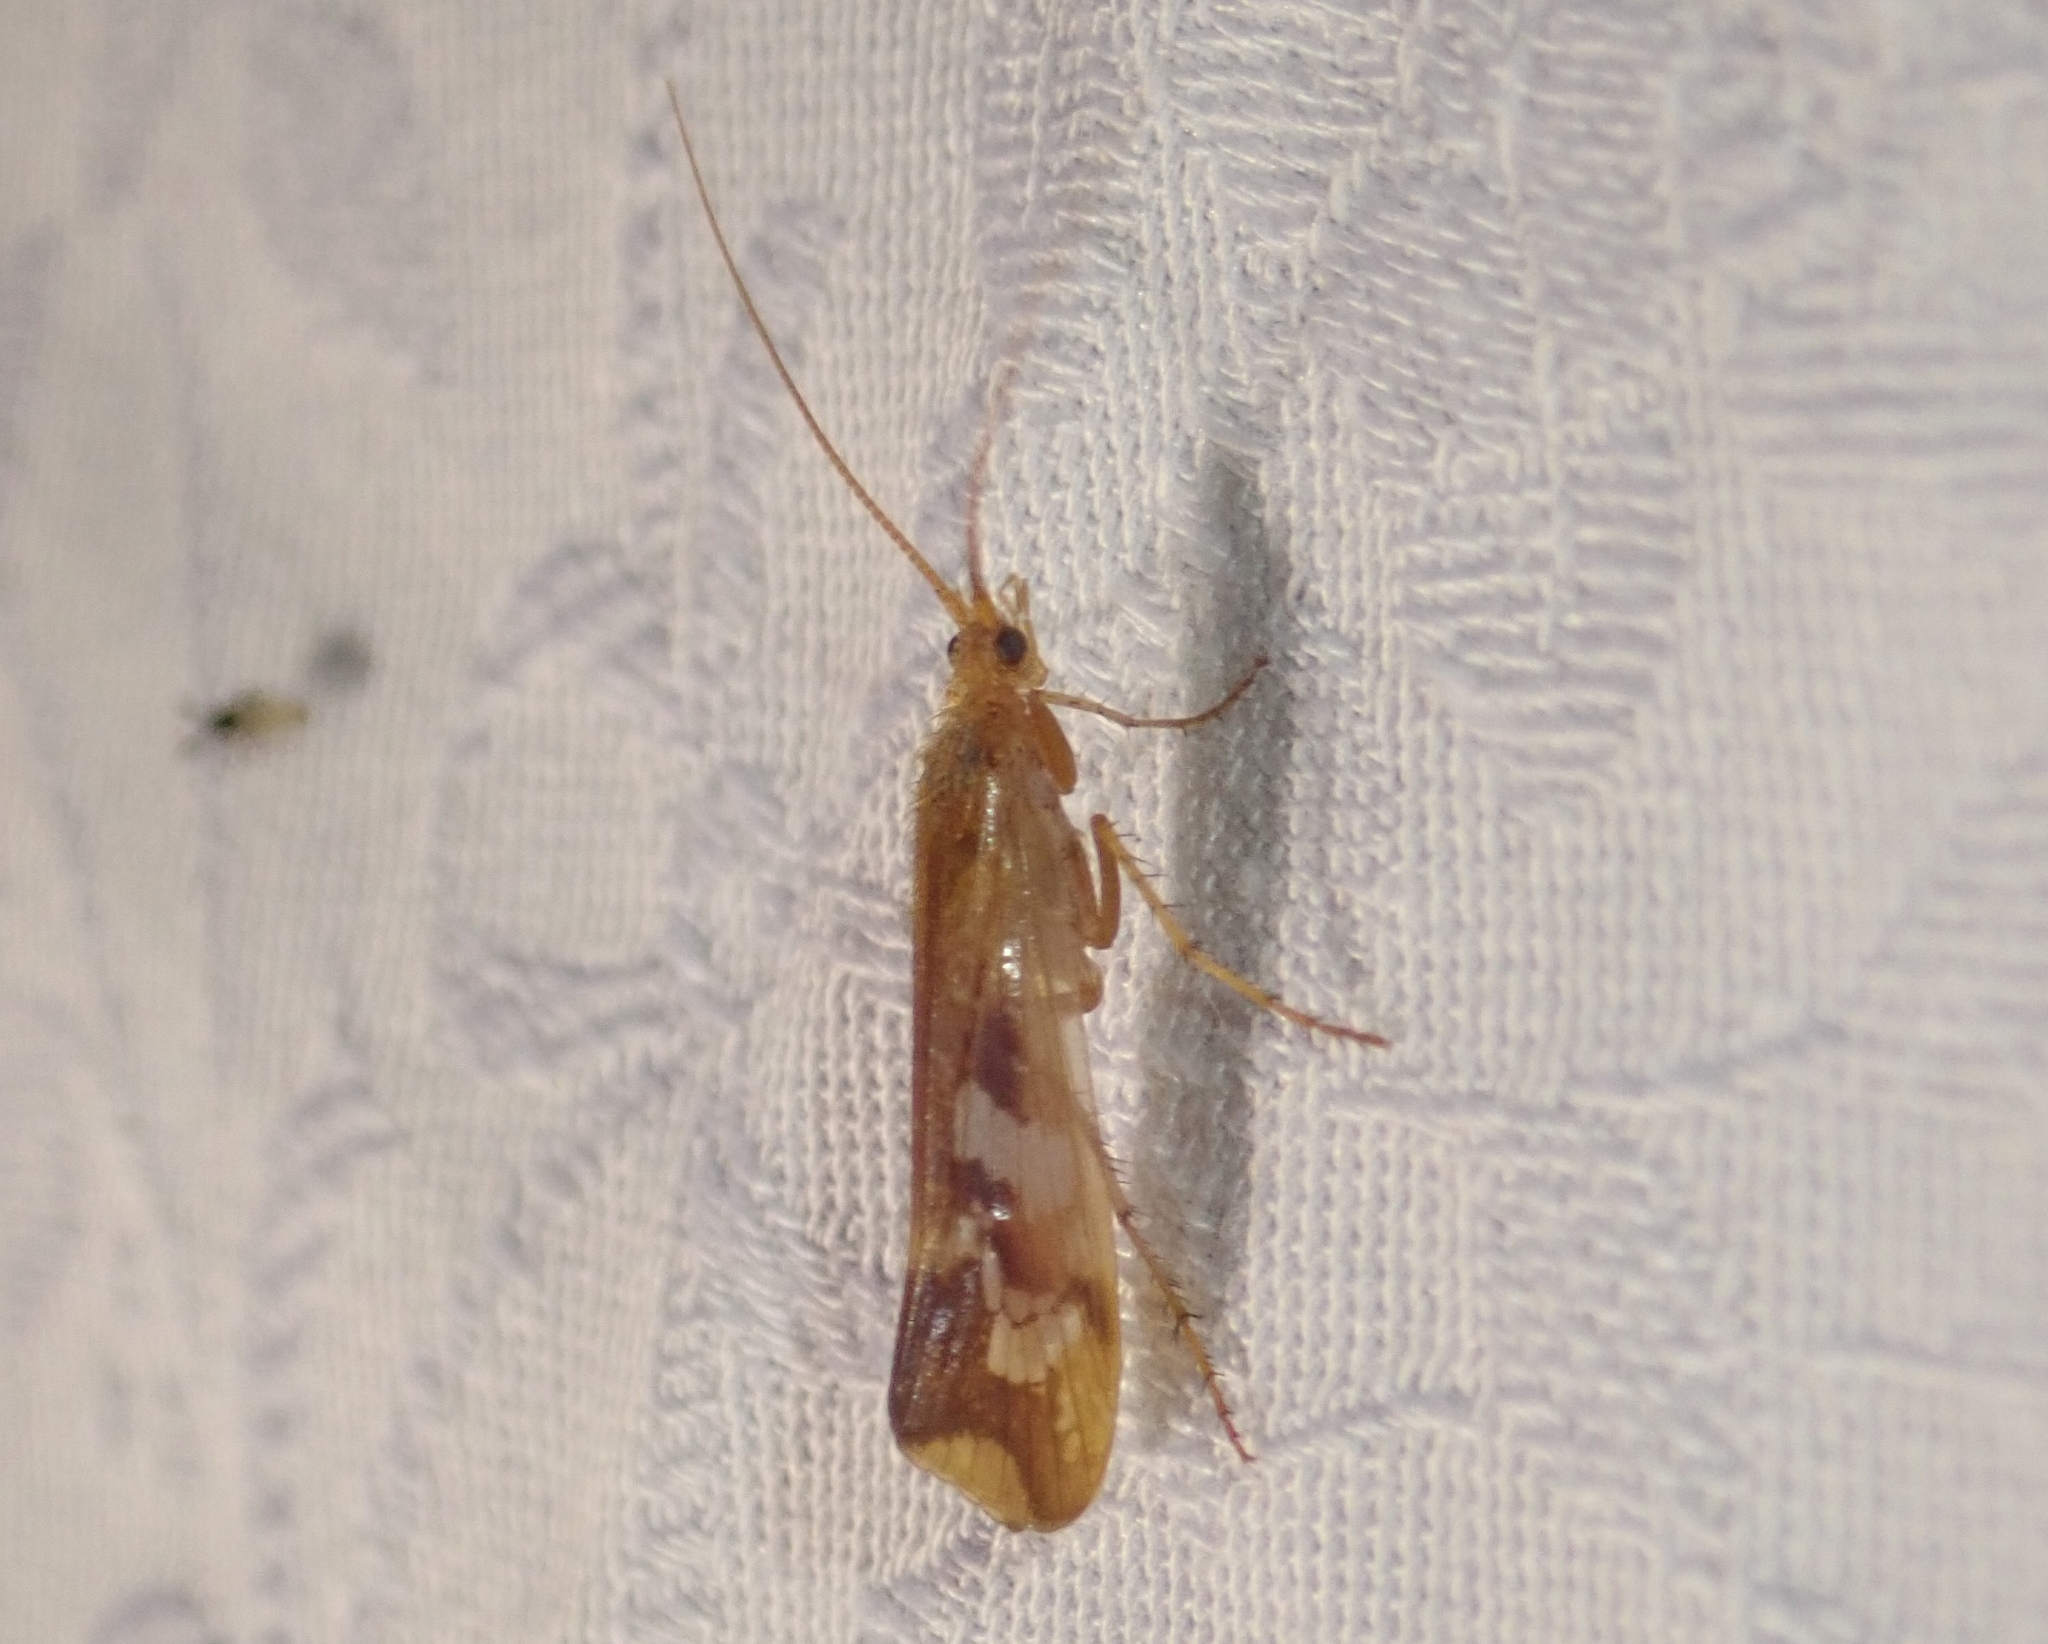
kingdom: Animalia
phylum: Arthropoda
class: Insecta
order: Trichoptera
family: Limnephilidae
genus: Limnephilus
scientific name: Limnephilus lunatus
